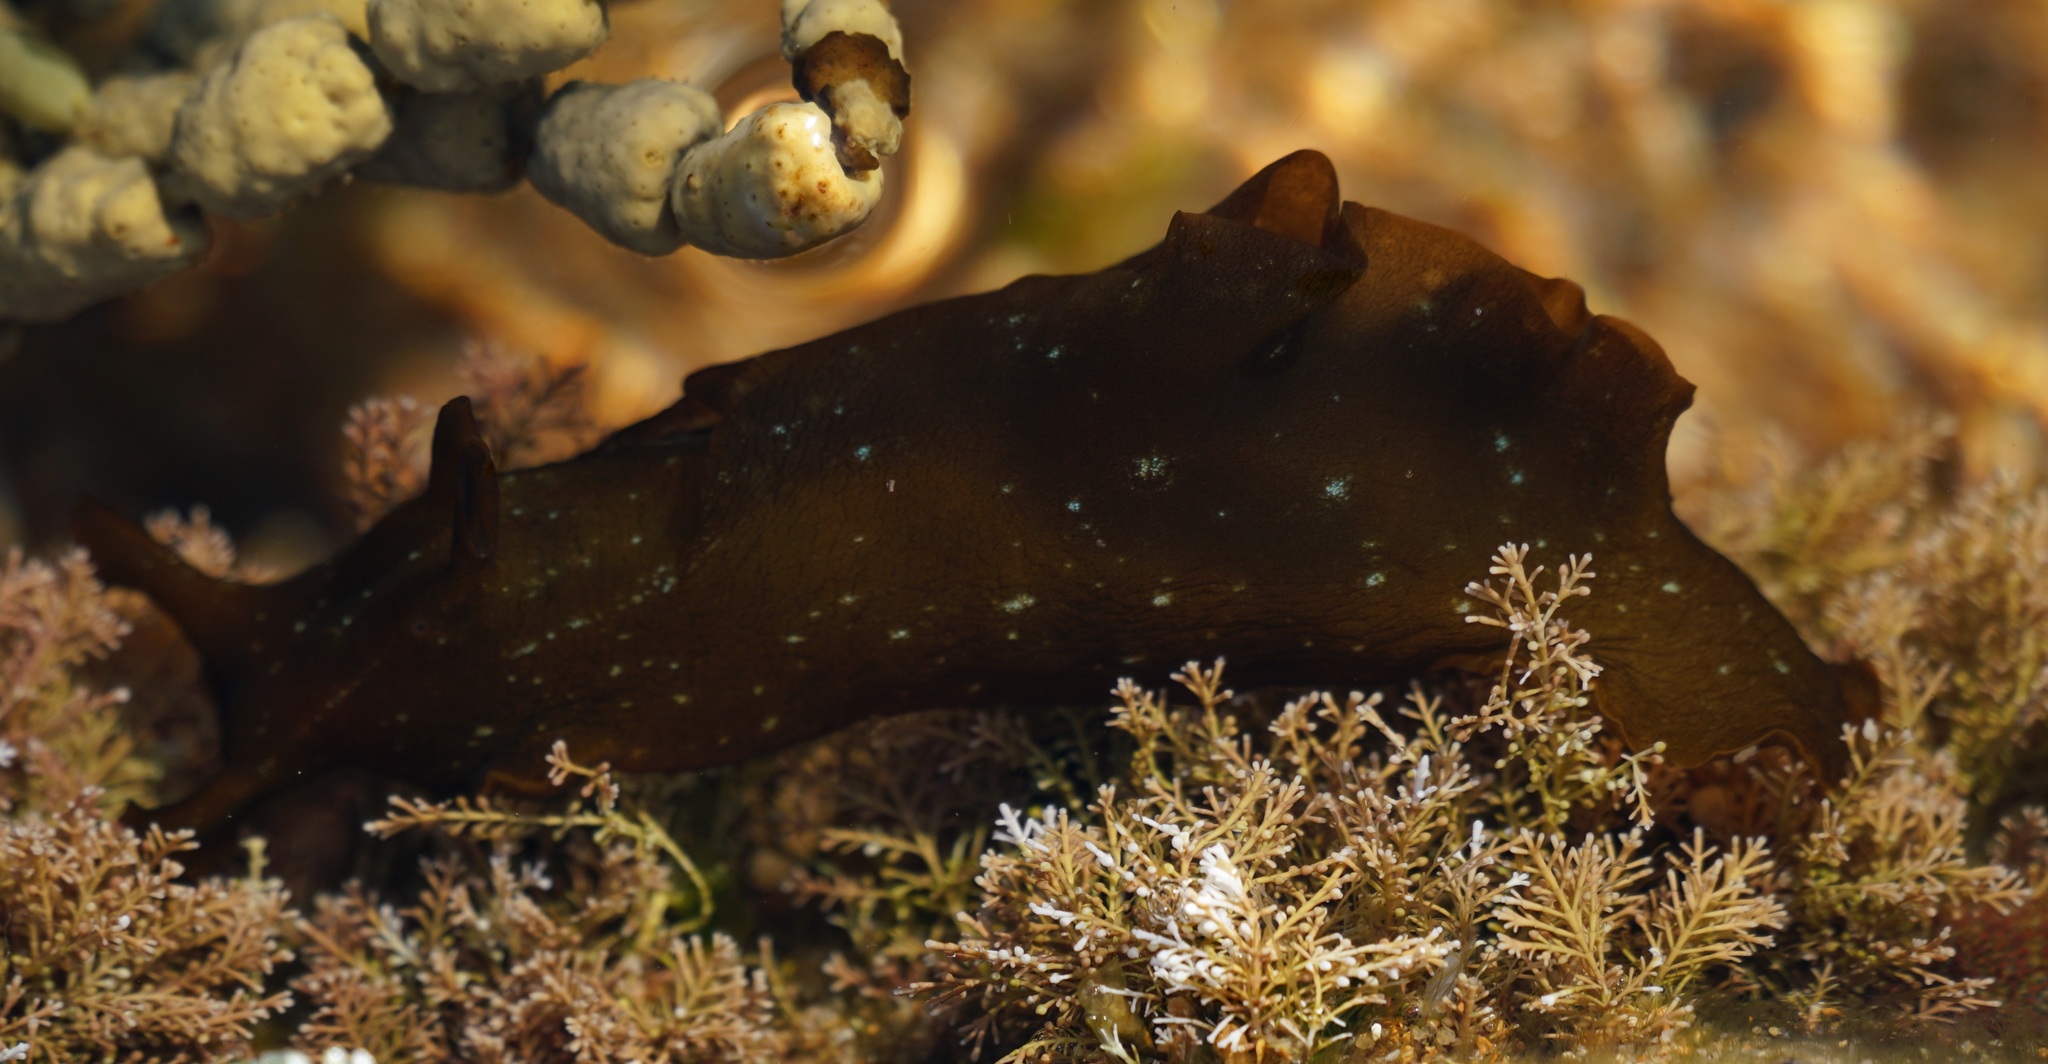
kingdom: Animalia
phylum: Mollusca
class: Gastropoda
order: Aplysiida
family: Aplysiidae
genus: Aplysia
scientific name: Aplysia juliana
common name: Walking sea hare
